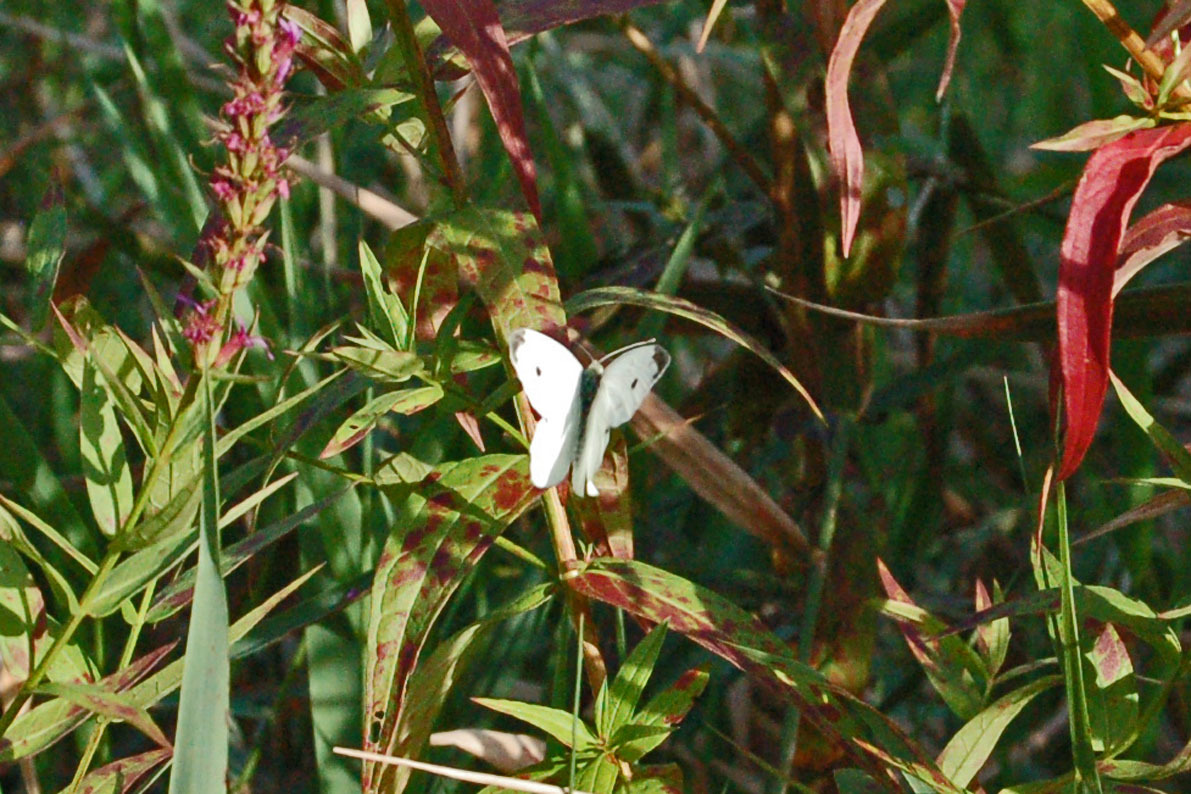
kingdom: Animalia
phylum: Arthropoda
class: Insecta
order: Lepidoptera
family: Pieridae
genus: Pieris
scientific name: Pieris rapae
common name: Small white
